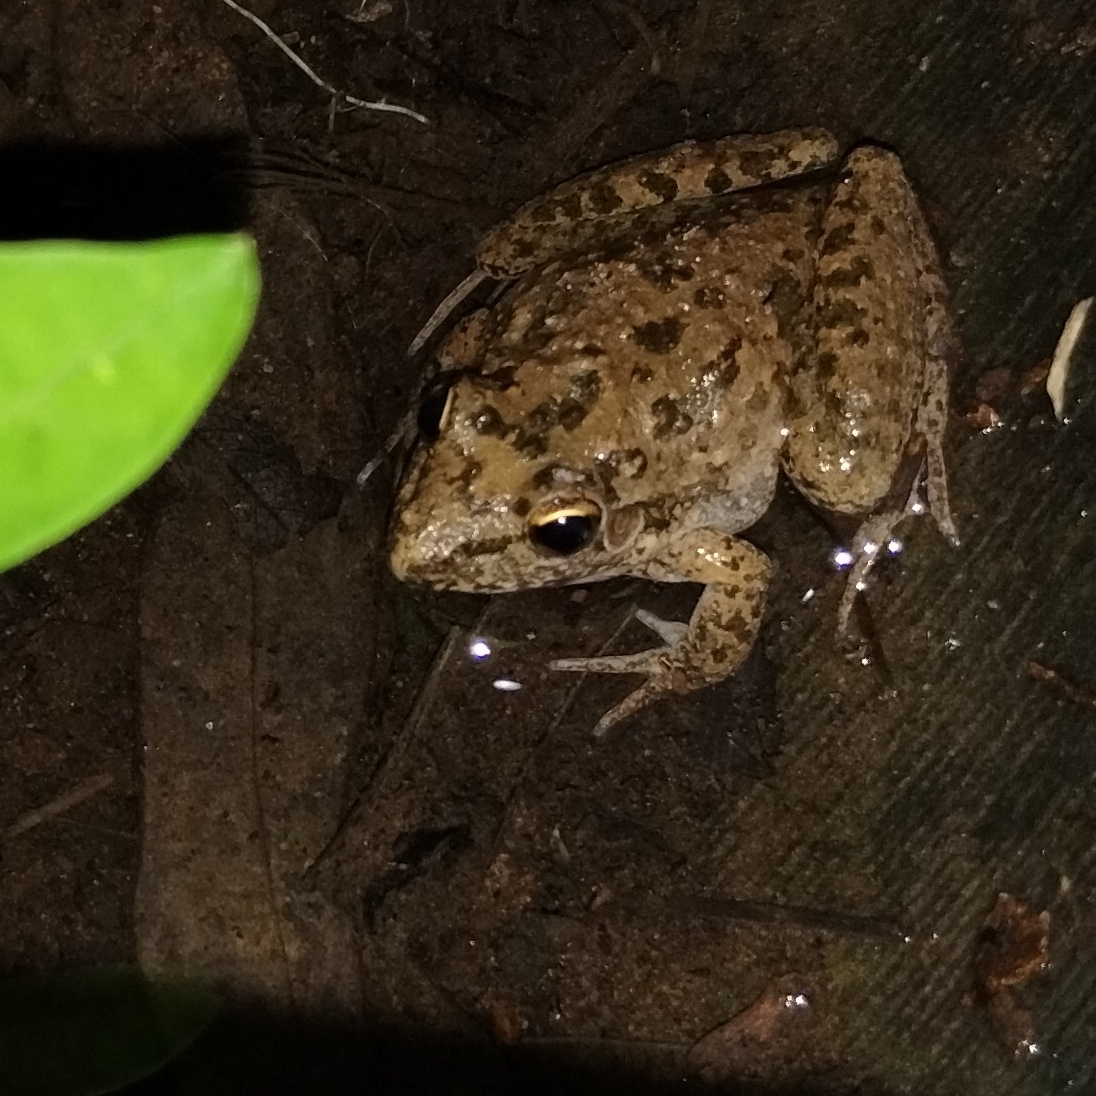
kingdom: Animalia
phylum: Chordata
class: Amphibia
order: Anura
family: Pelodryadidae
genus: Litoria
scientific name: Litoria inermis
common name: Bumpy rocket frog
